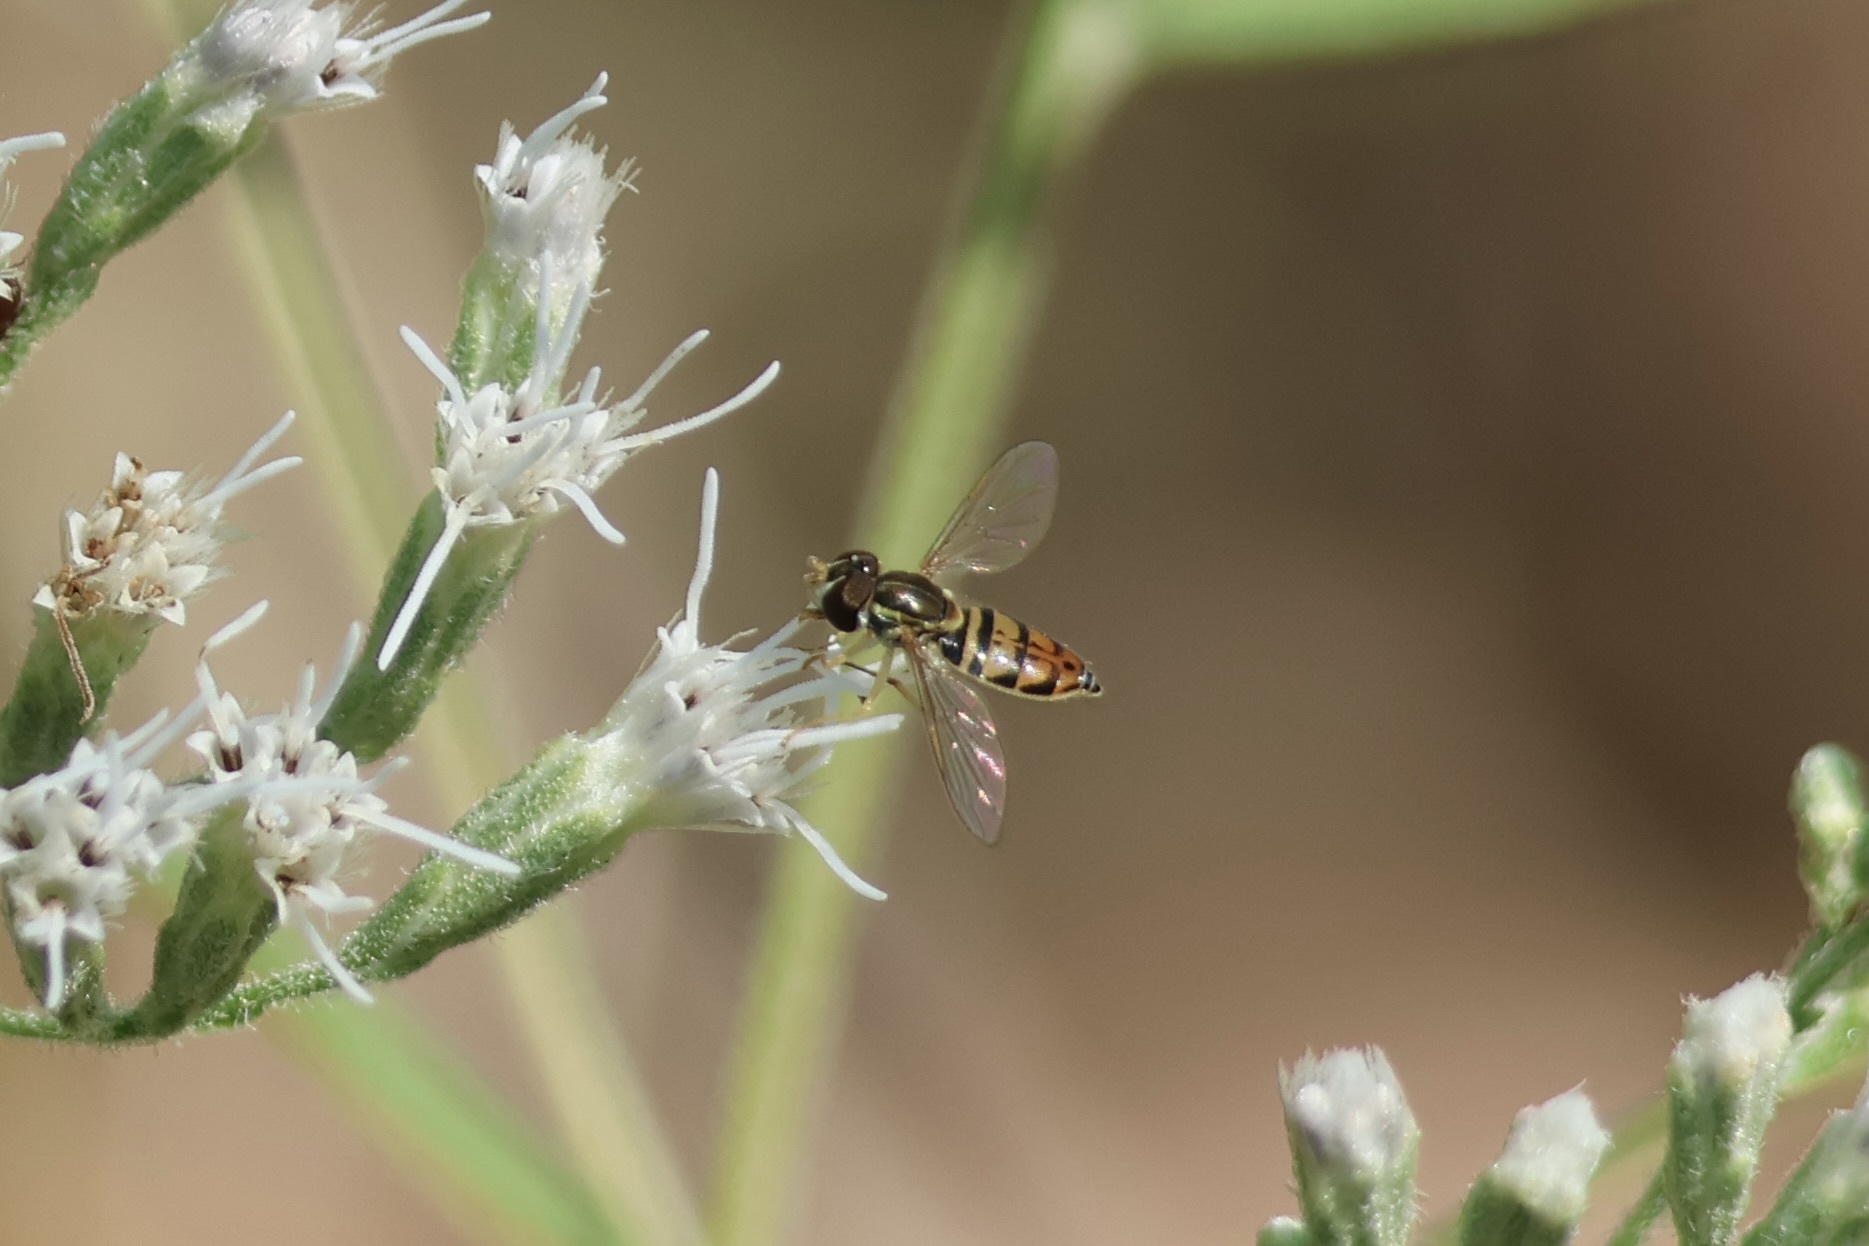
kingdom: Animalia
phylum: Arthropoda
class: Insecta
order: Diptera
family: Syrphidae
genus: Toxomerus
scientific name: Toxomerus marginatus
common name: Syrphid fly
